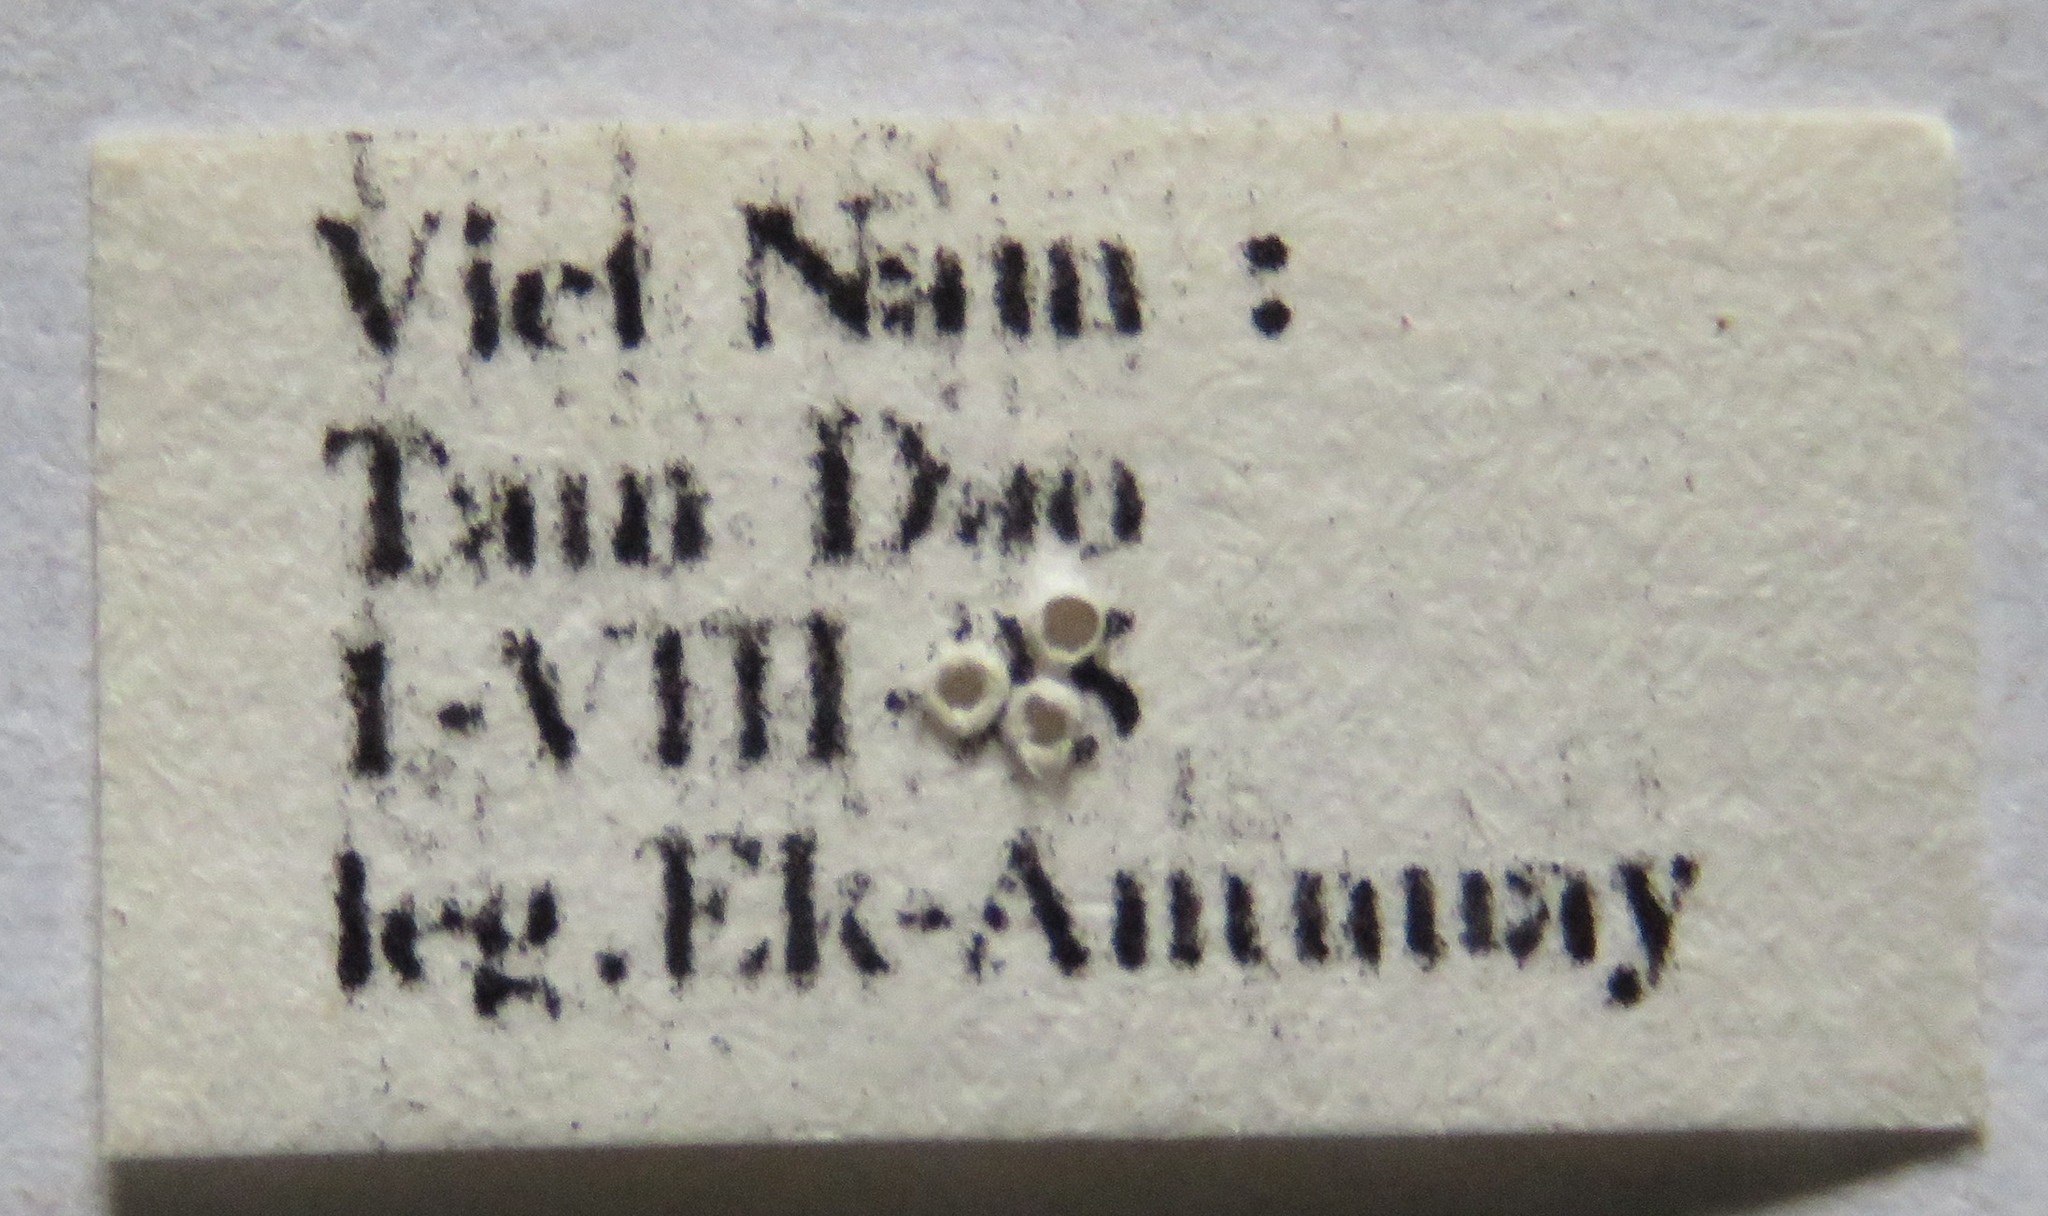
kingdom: Animalia
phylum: Arthropoda
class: Insecta
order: Coleoptera
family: Lucanidae
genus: Prosopocoilus
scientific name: Prosopocoilus doris
